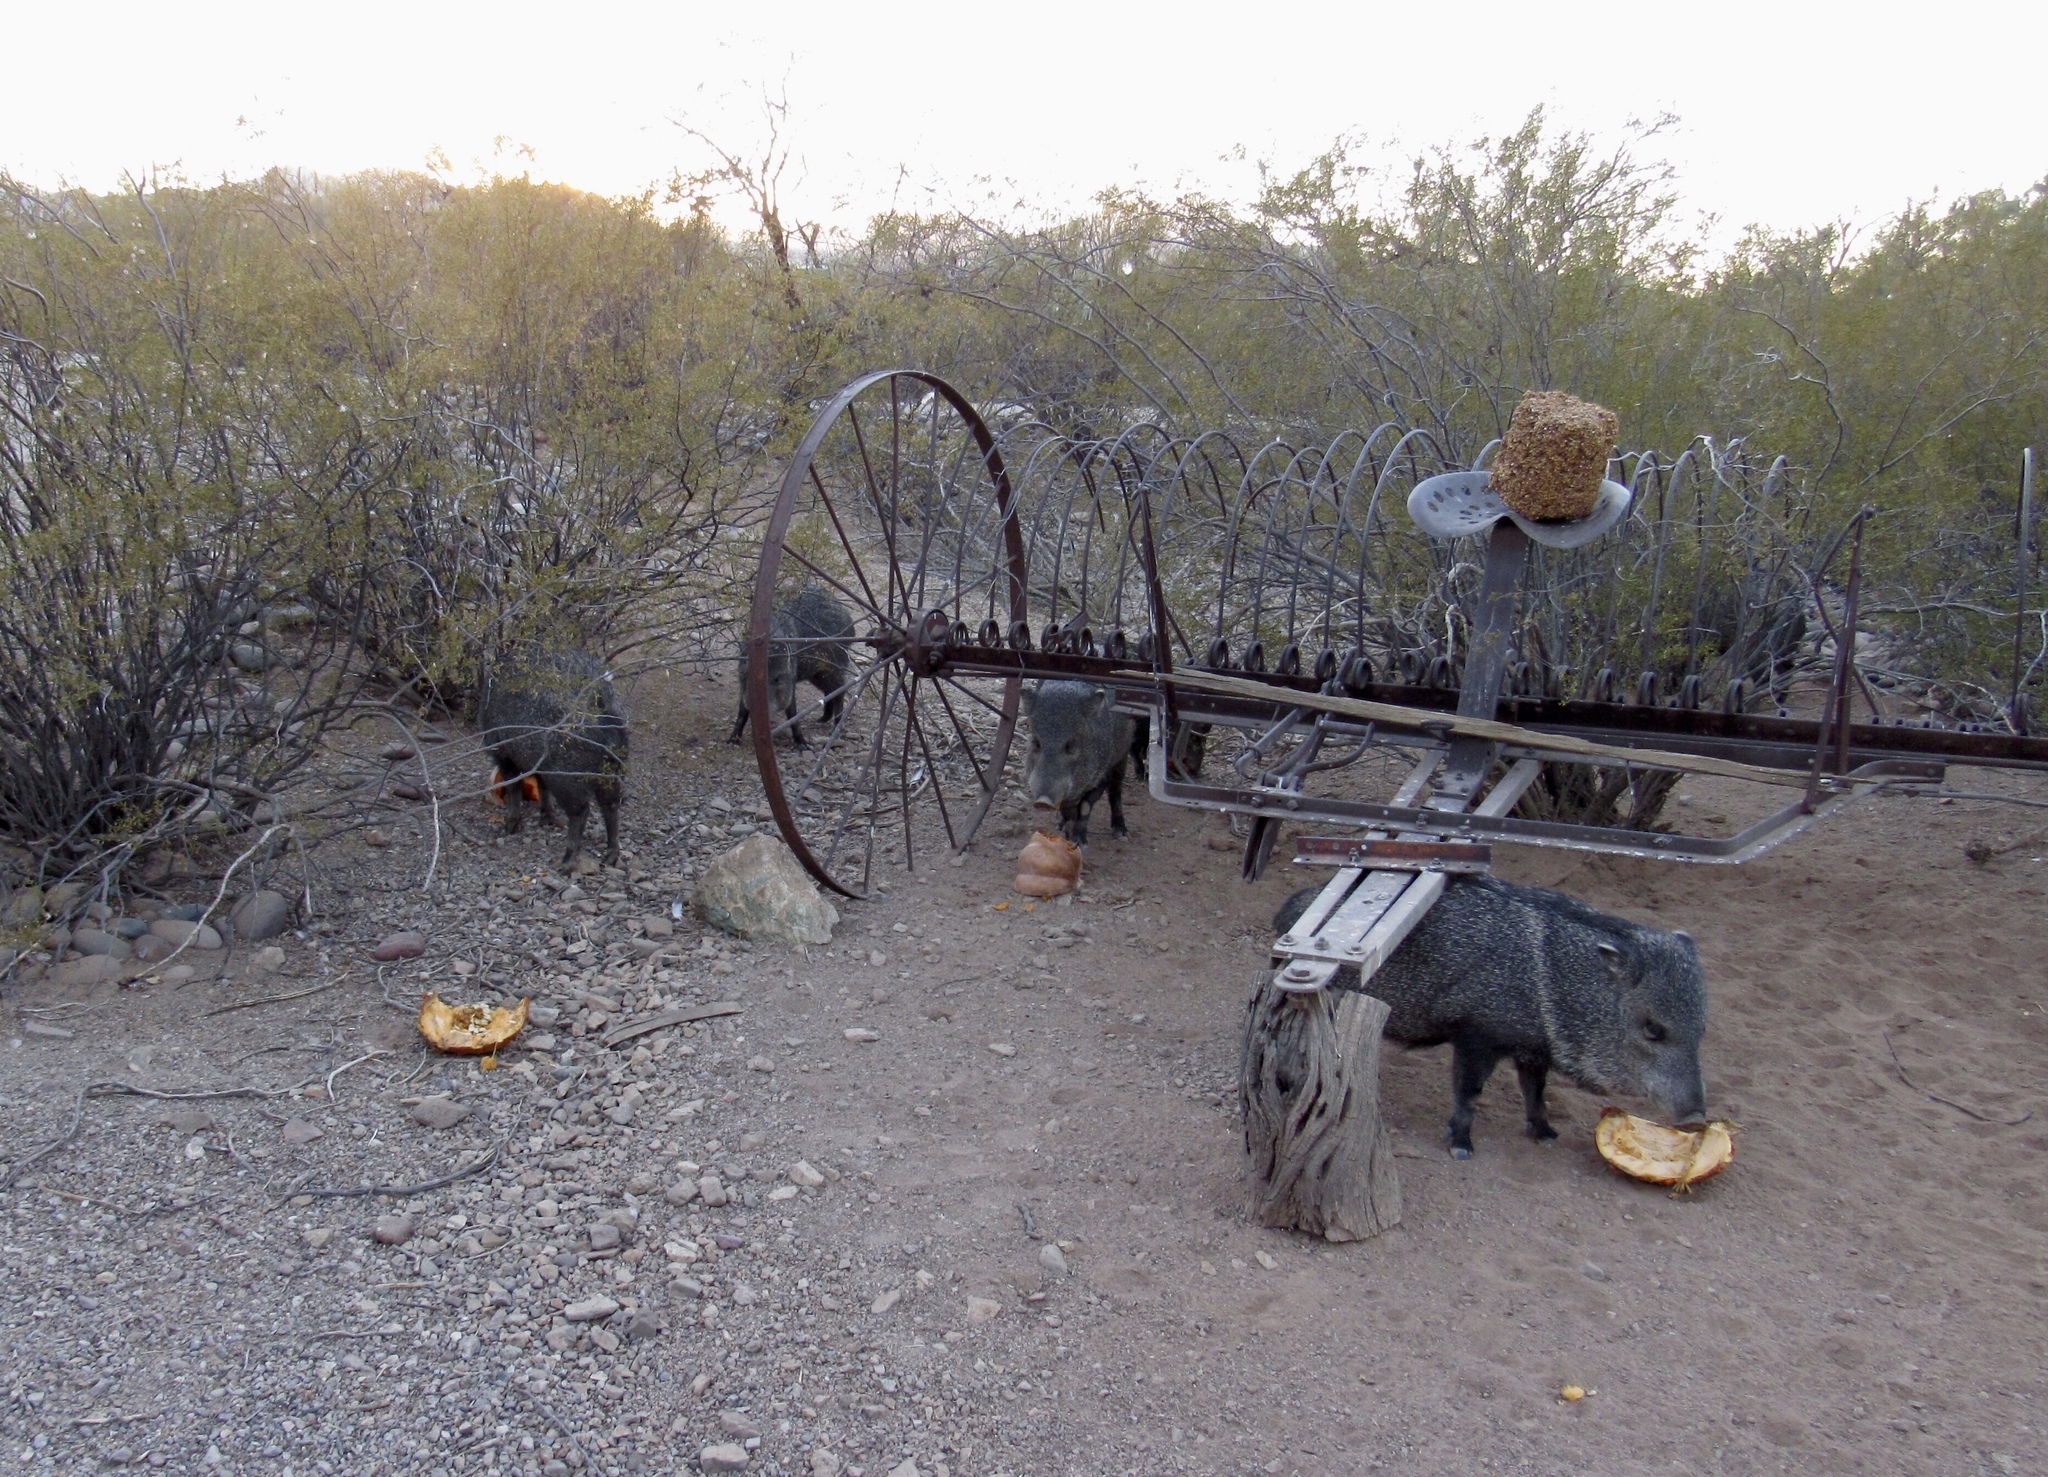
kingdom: Animalia
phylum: Chordata
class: Mammalia
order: Artiodactyla
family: Tayassuidae
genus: Pecari
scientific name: Pecari tajacu
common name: Collared peccary
